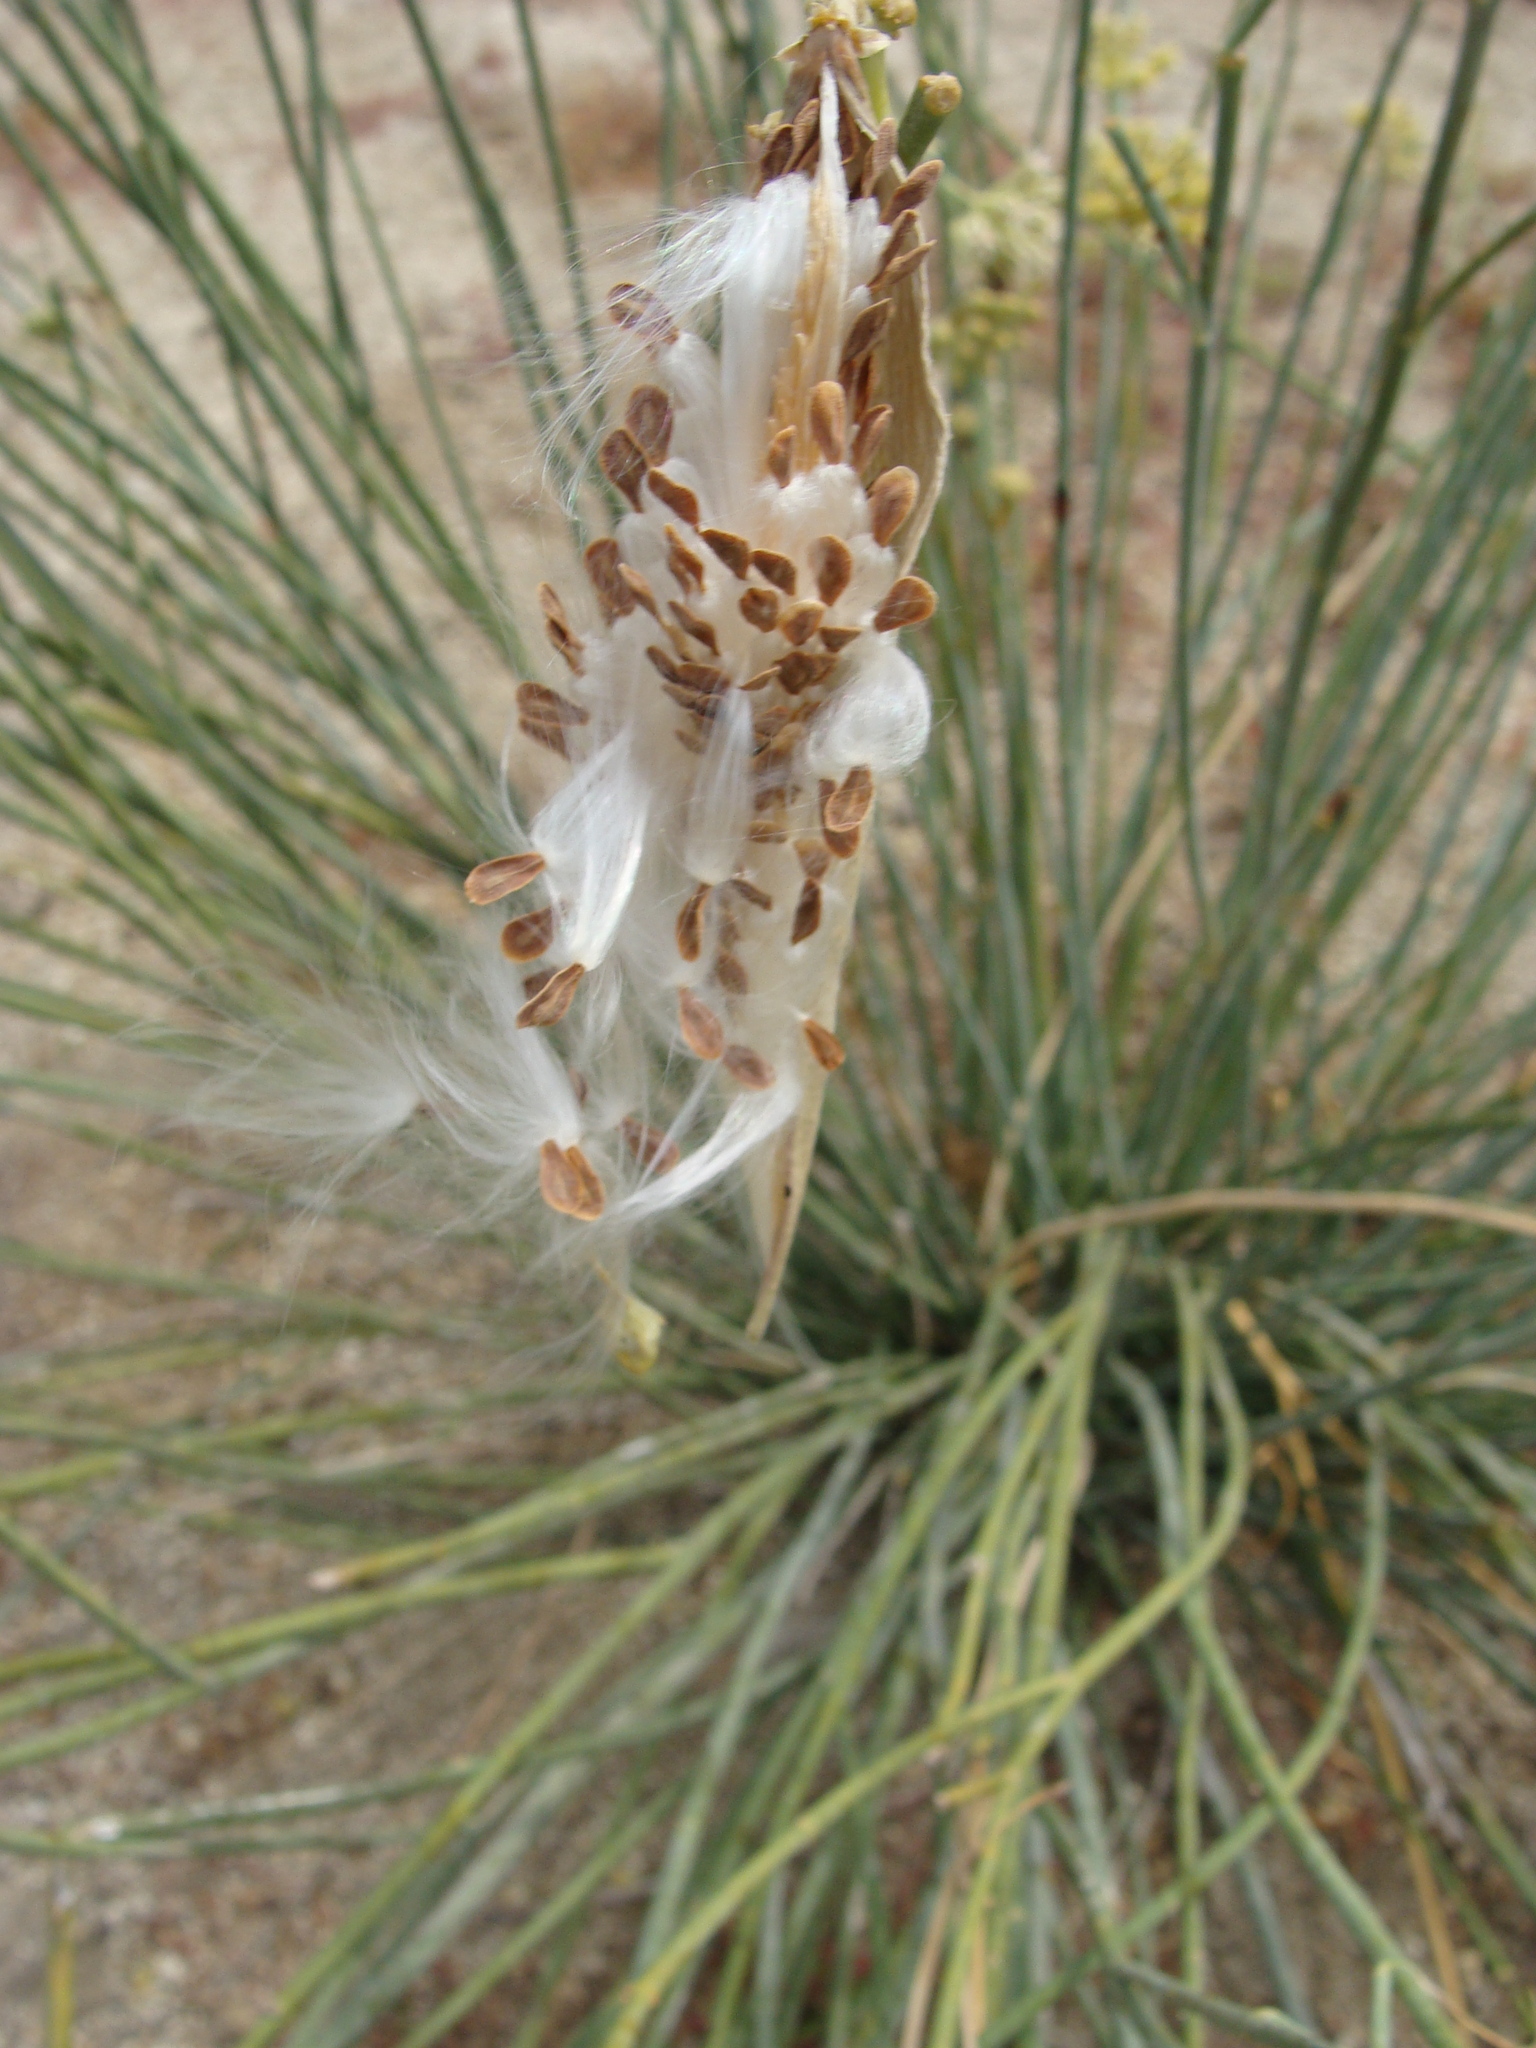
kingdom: Plantae
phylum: Tracheophyta
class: Magnoliopsida
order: Gentianales
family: Apocynaceae
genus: Asclepias
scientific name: Asclepias subulata
